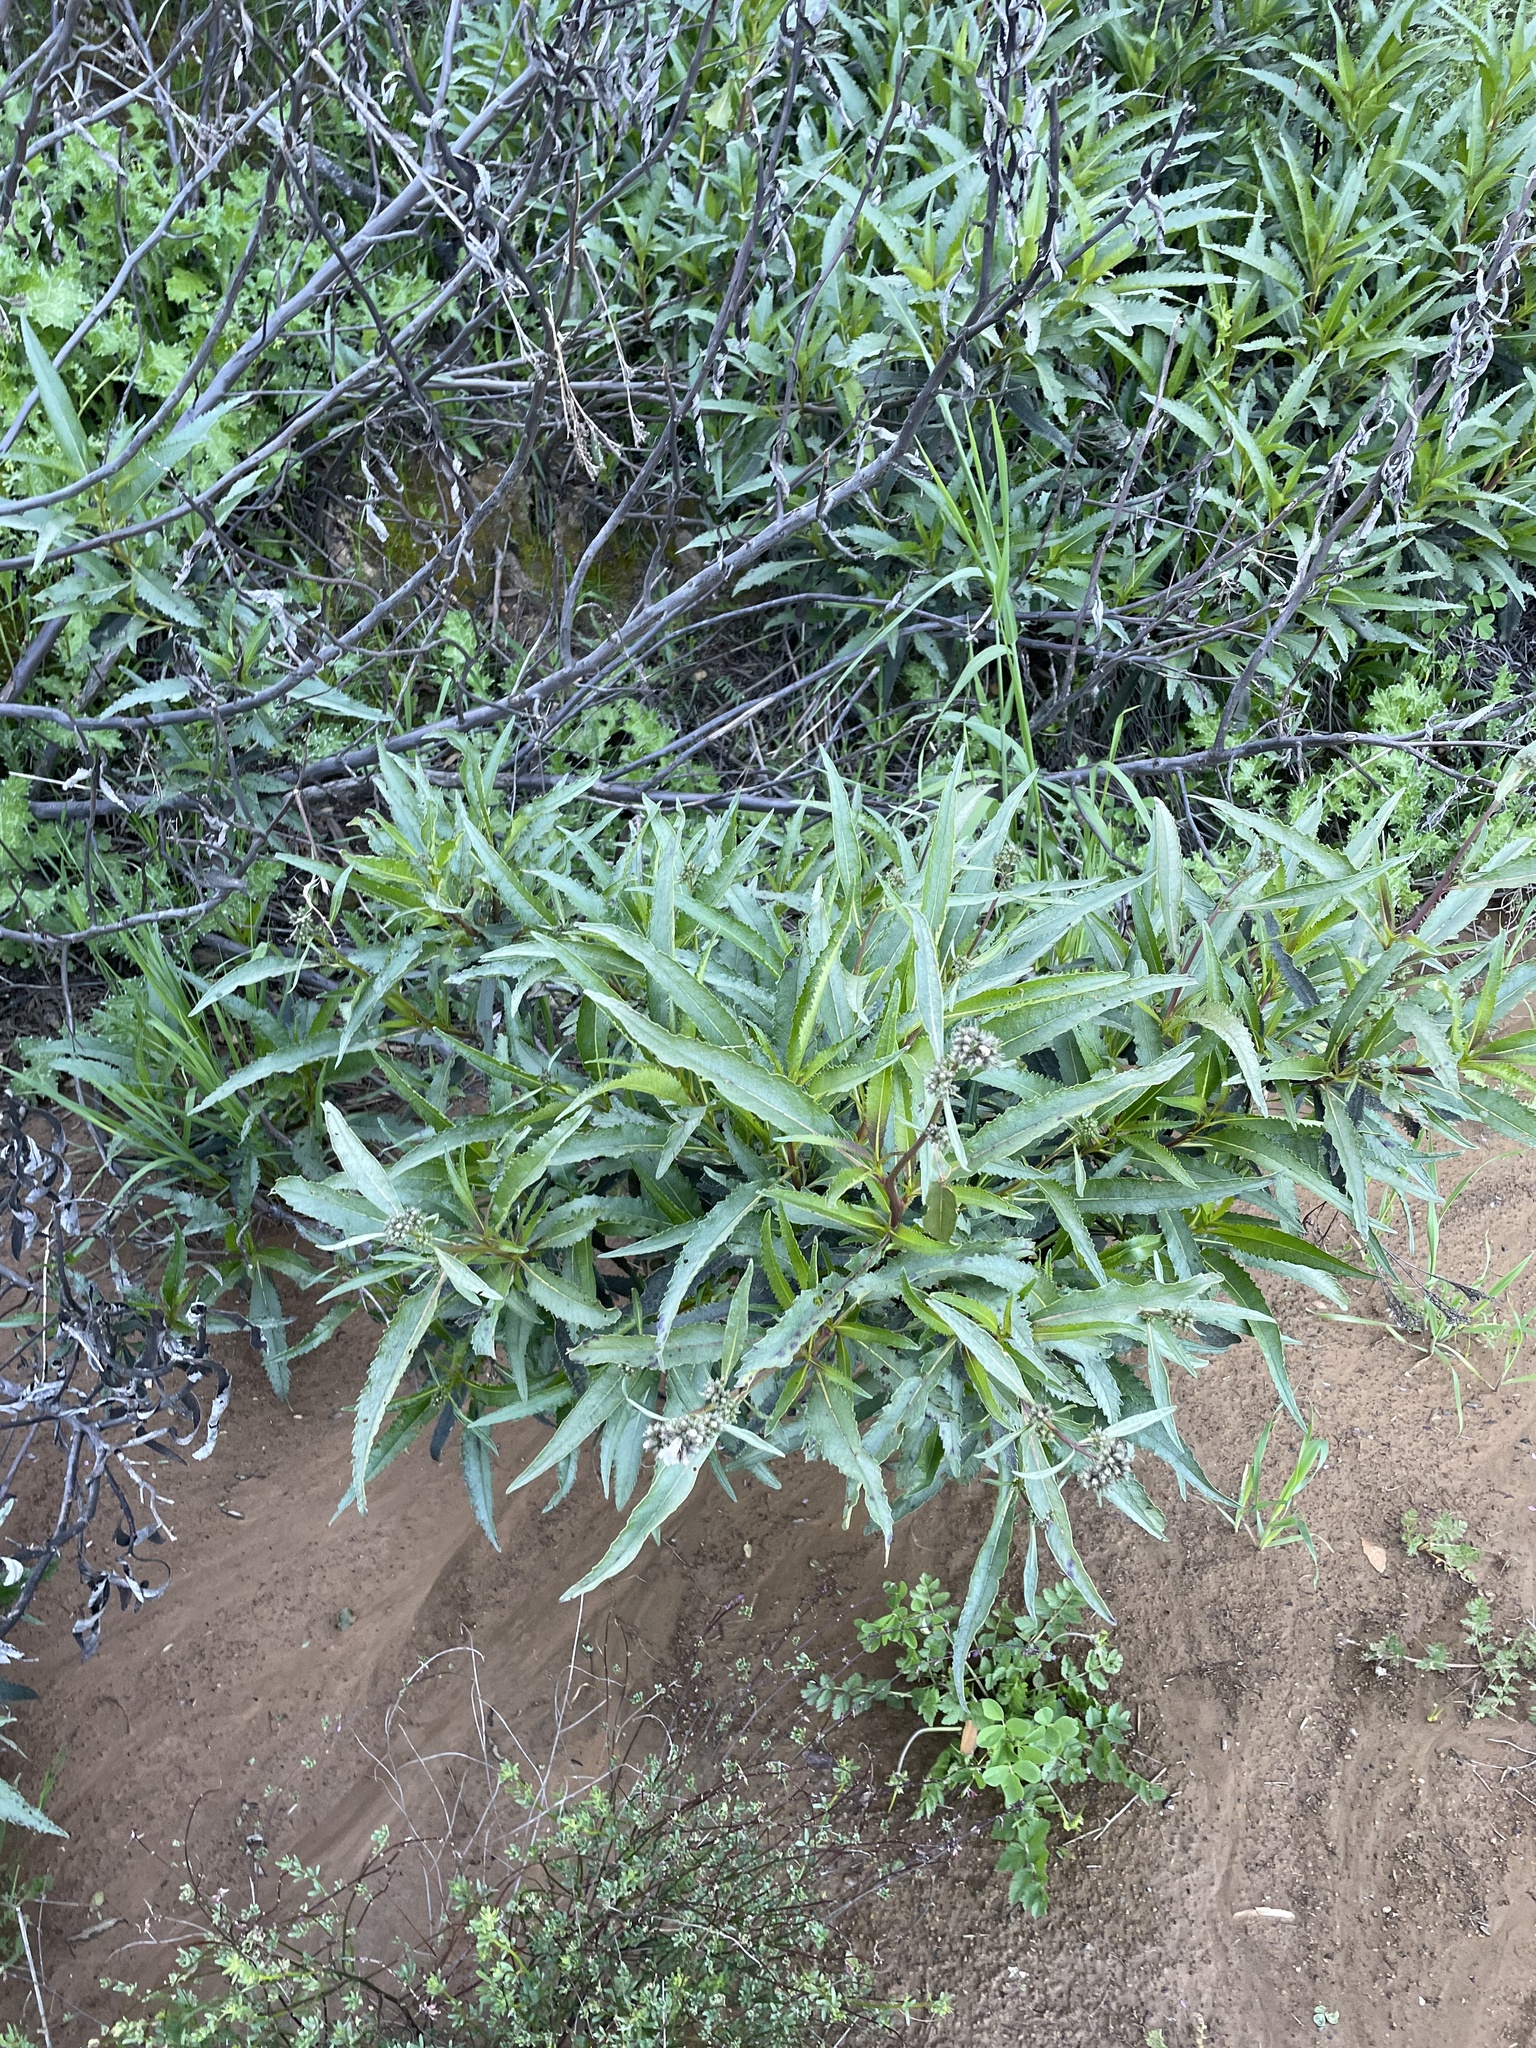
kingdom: Plantae
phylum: Tracheophyta
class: Magnoliopsida
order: Boraginales
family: Namaceae
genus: Eriodictyon
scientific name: Eriodictyon californicum
